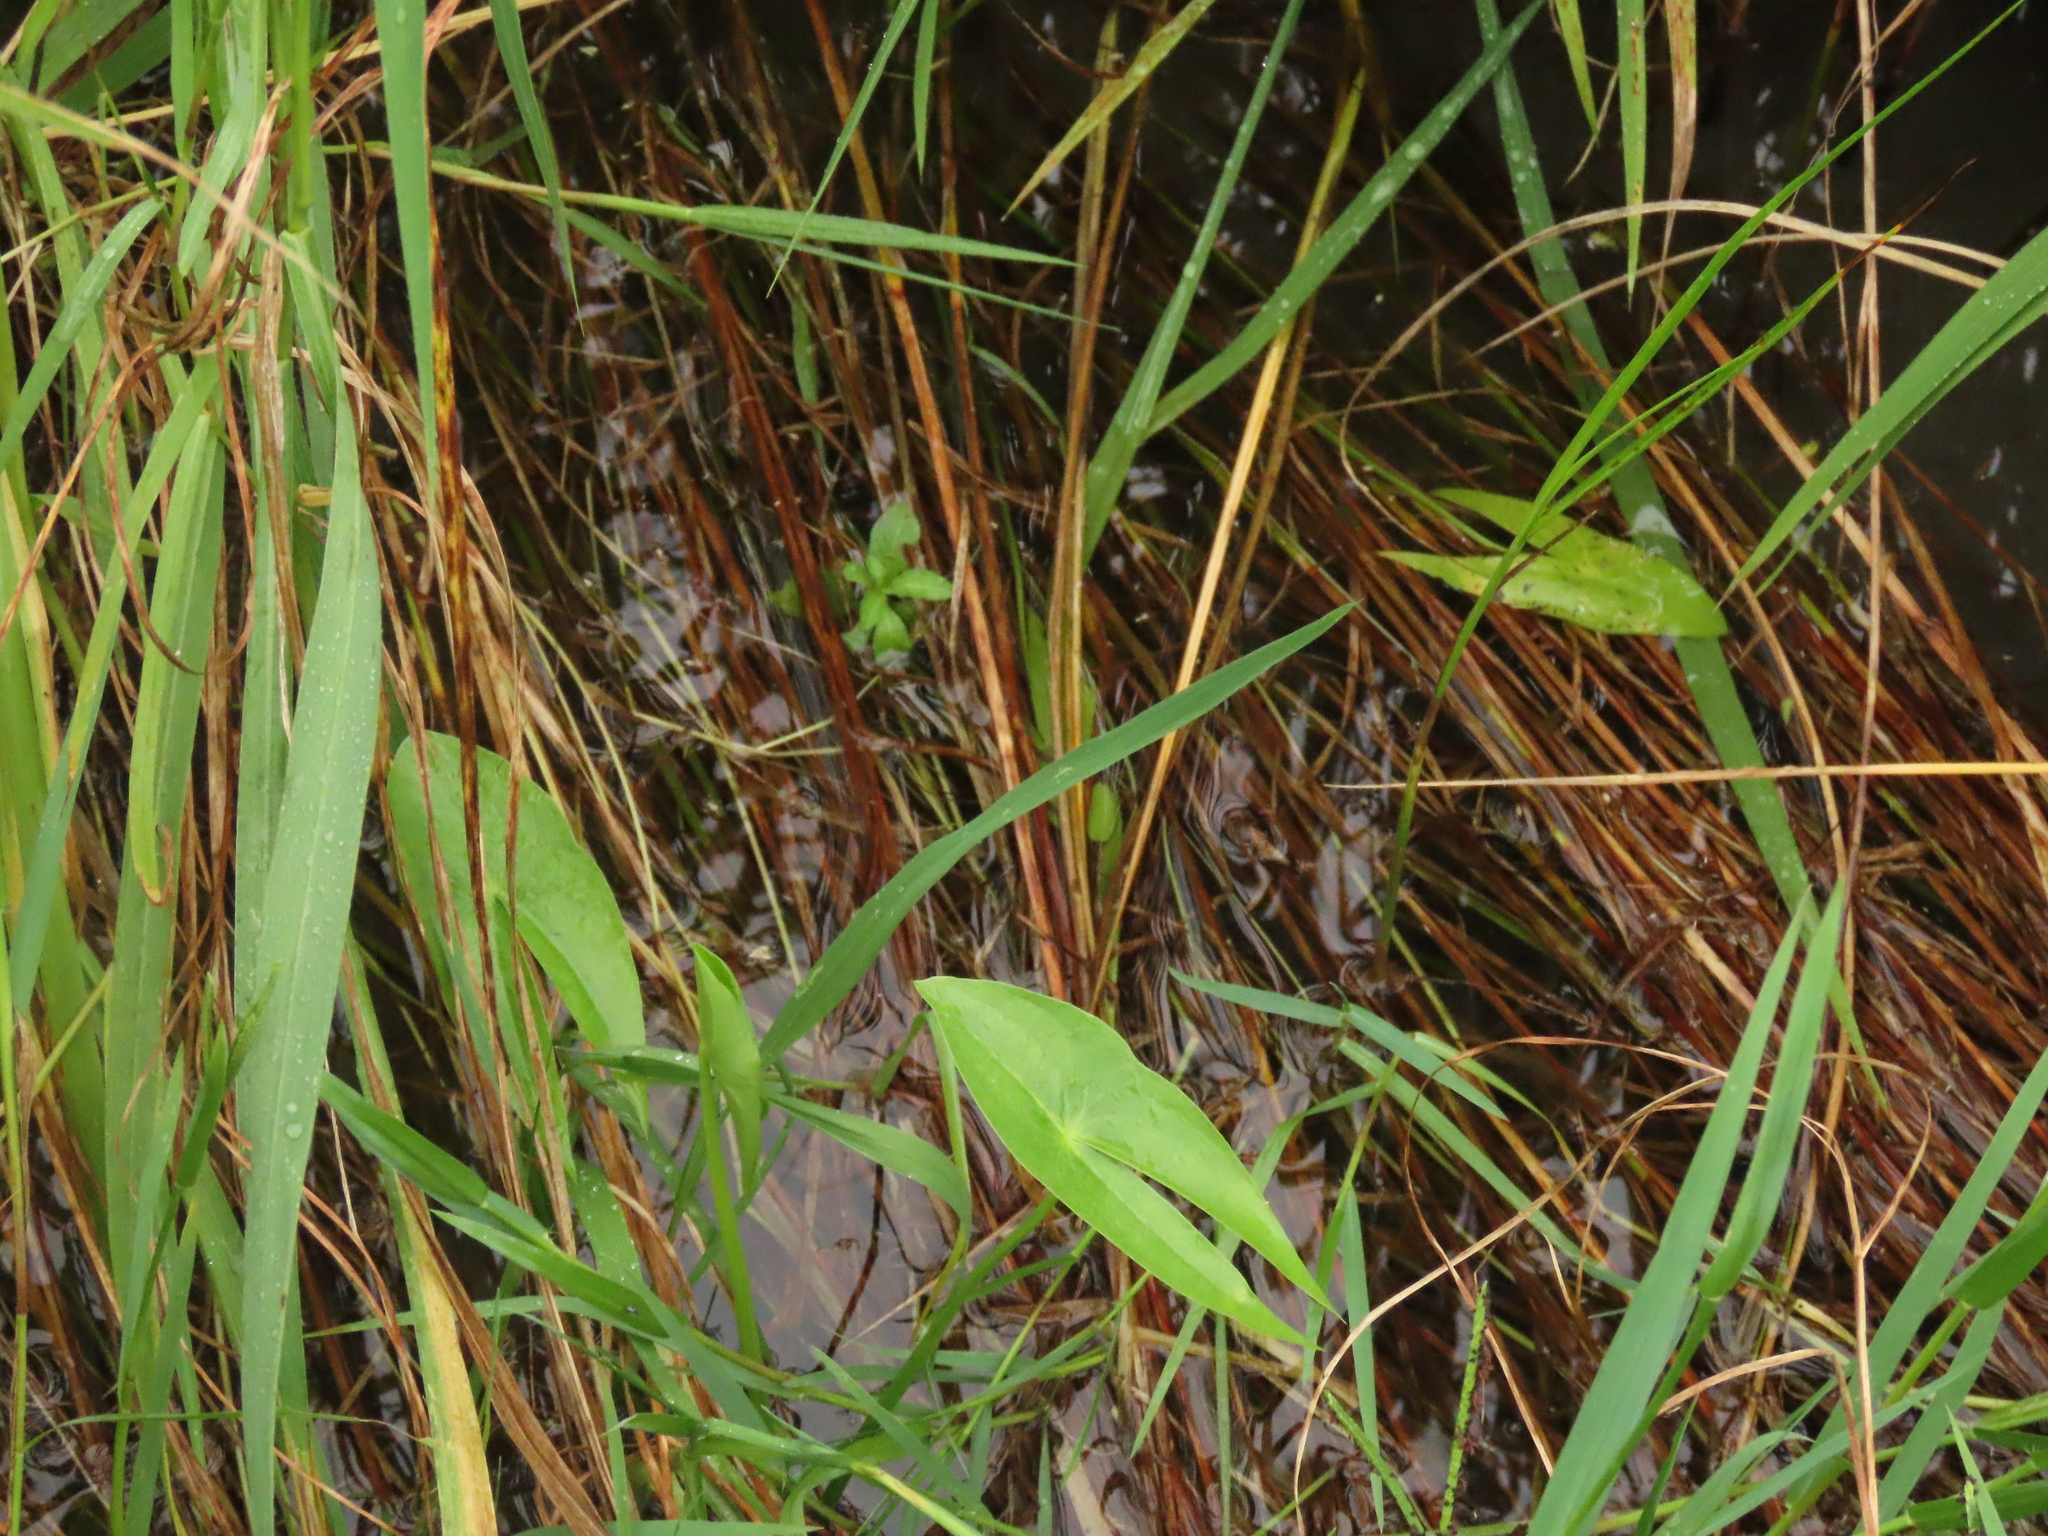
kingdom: Plantae
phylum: Tracheophyta
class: Liliopsida
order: Alismatales
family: Alismataceae
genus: Sagittaria
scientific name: Sagittaria trifolia
